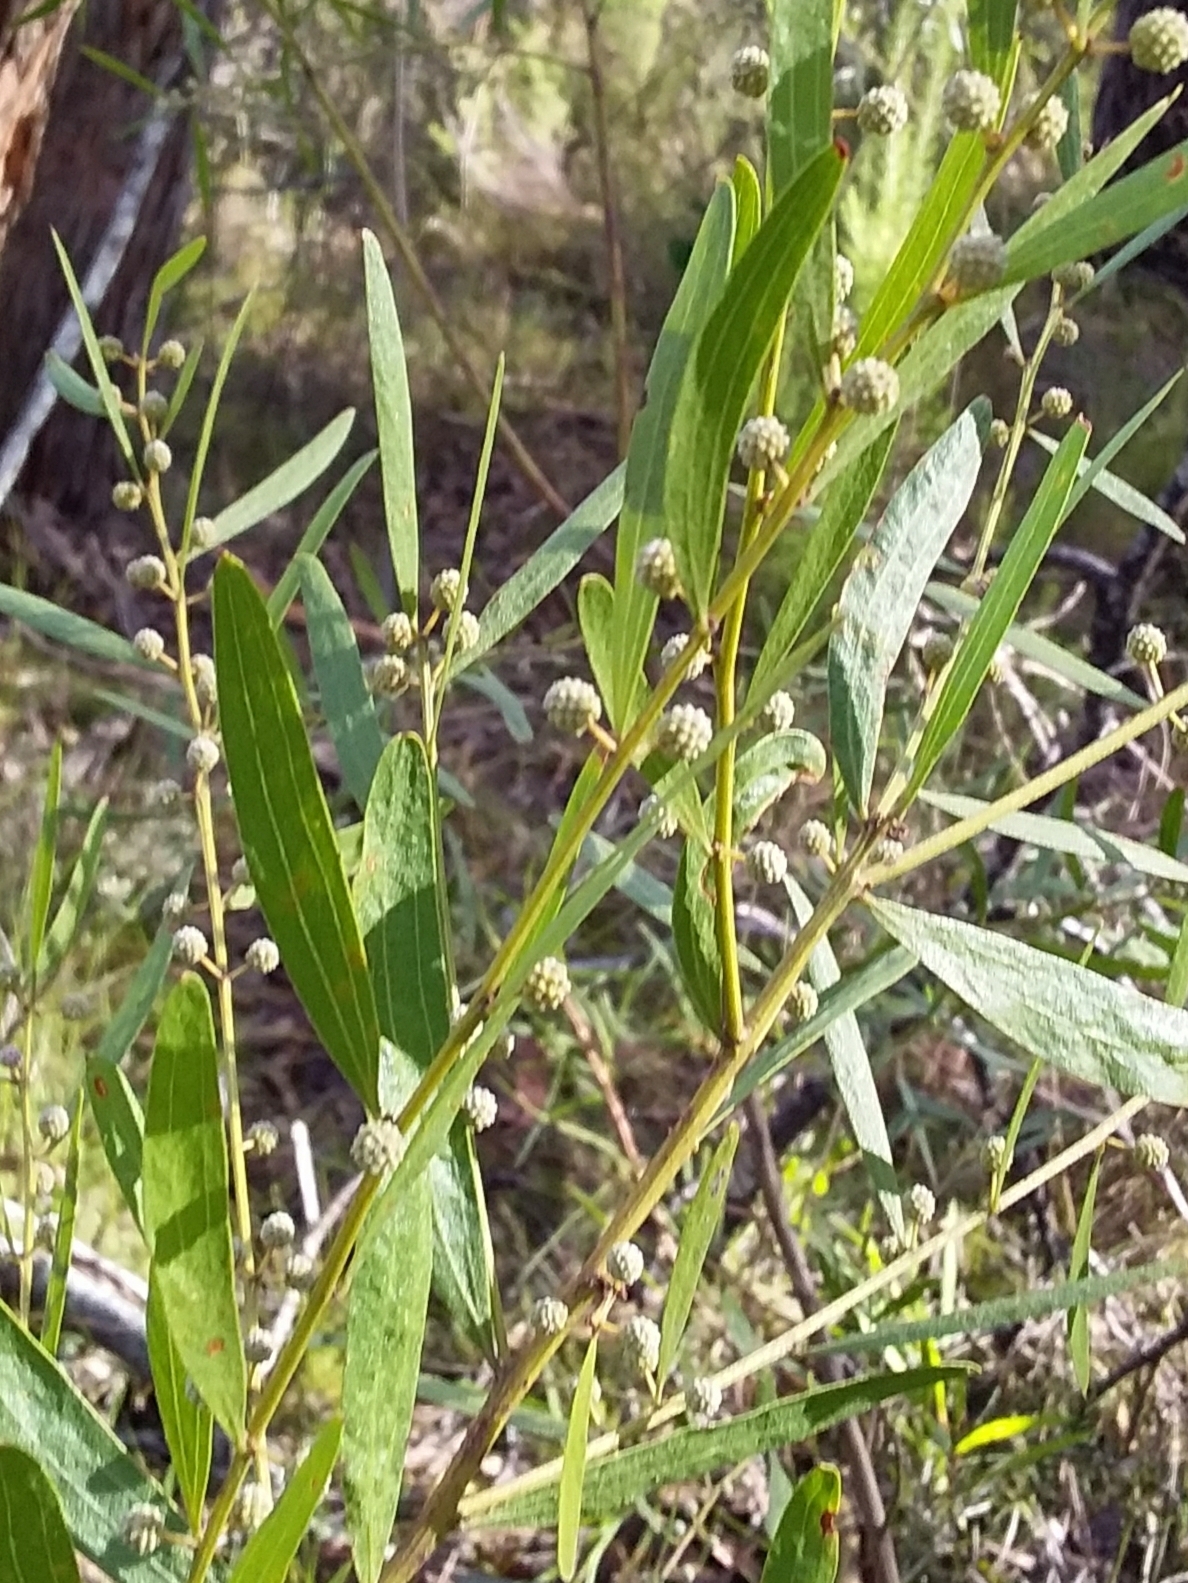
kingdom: Plantae
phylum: Tracheophyta
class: Magnoliopsida
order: Fabales
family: Fabaceae
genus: Acacia
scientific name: Acacia verniciflua
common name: Varnish wattle
